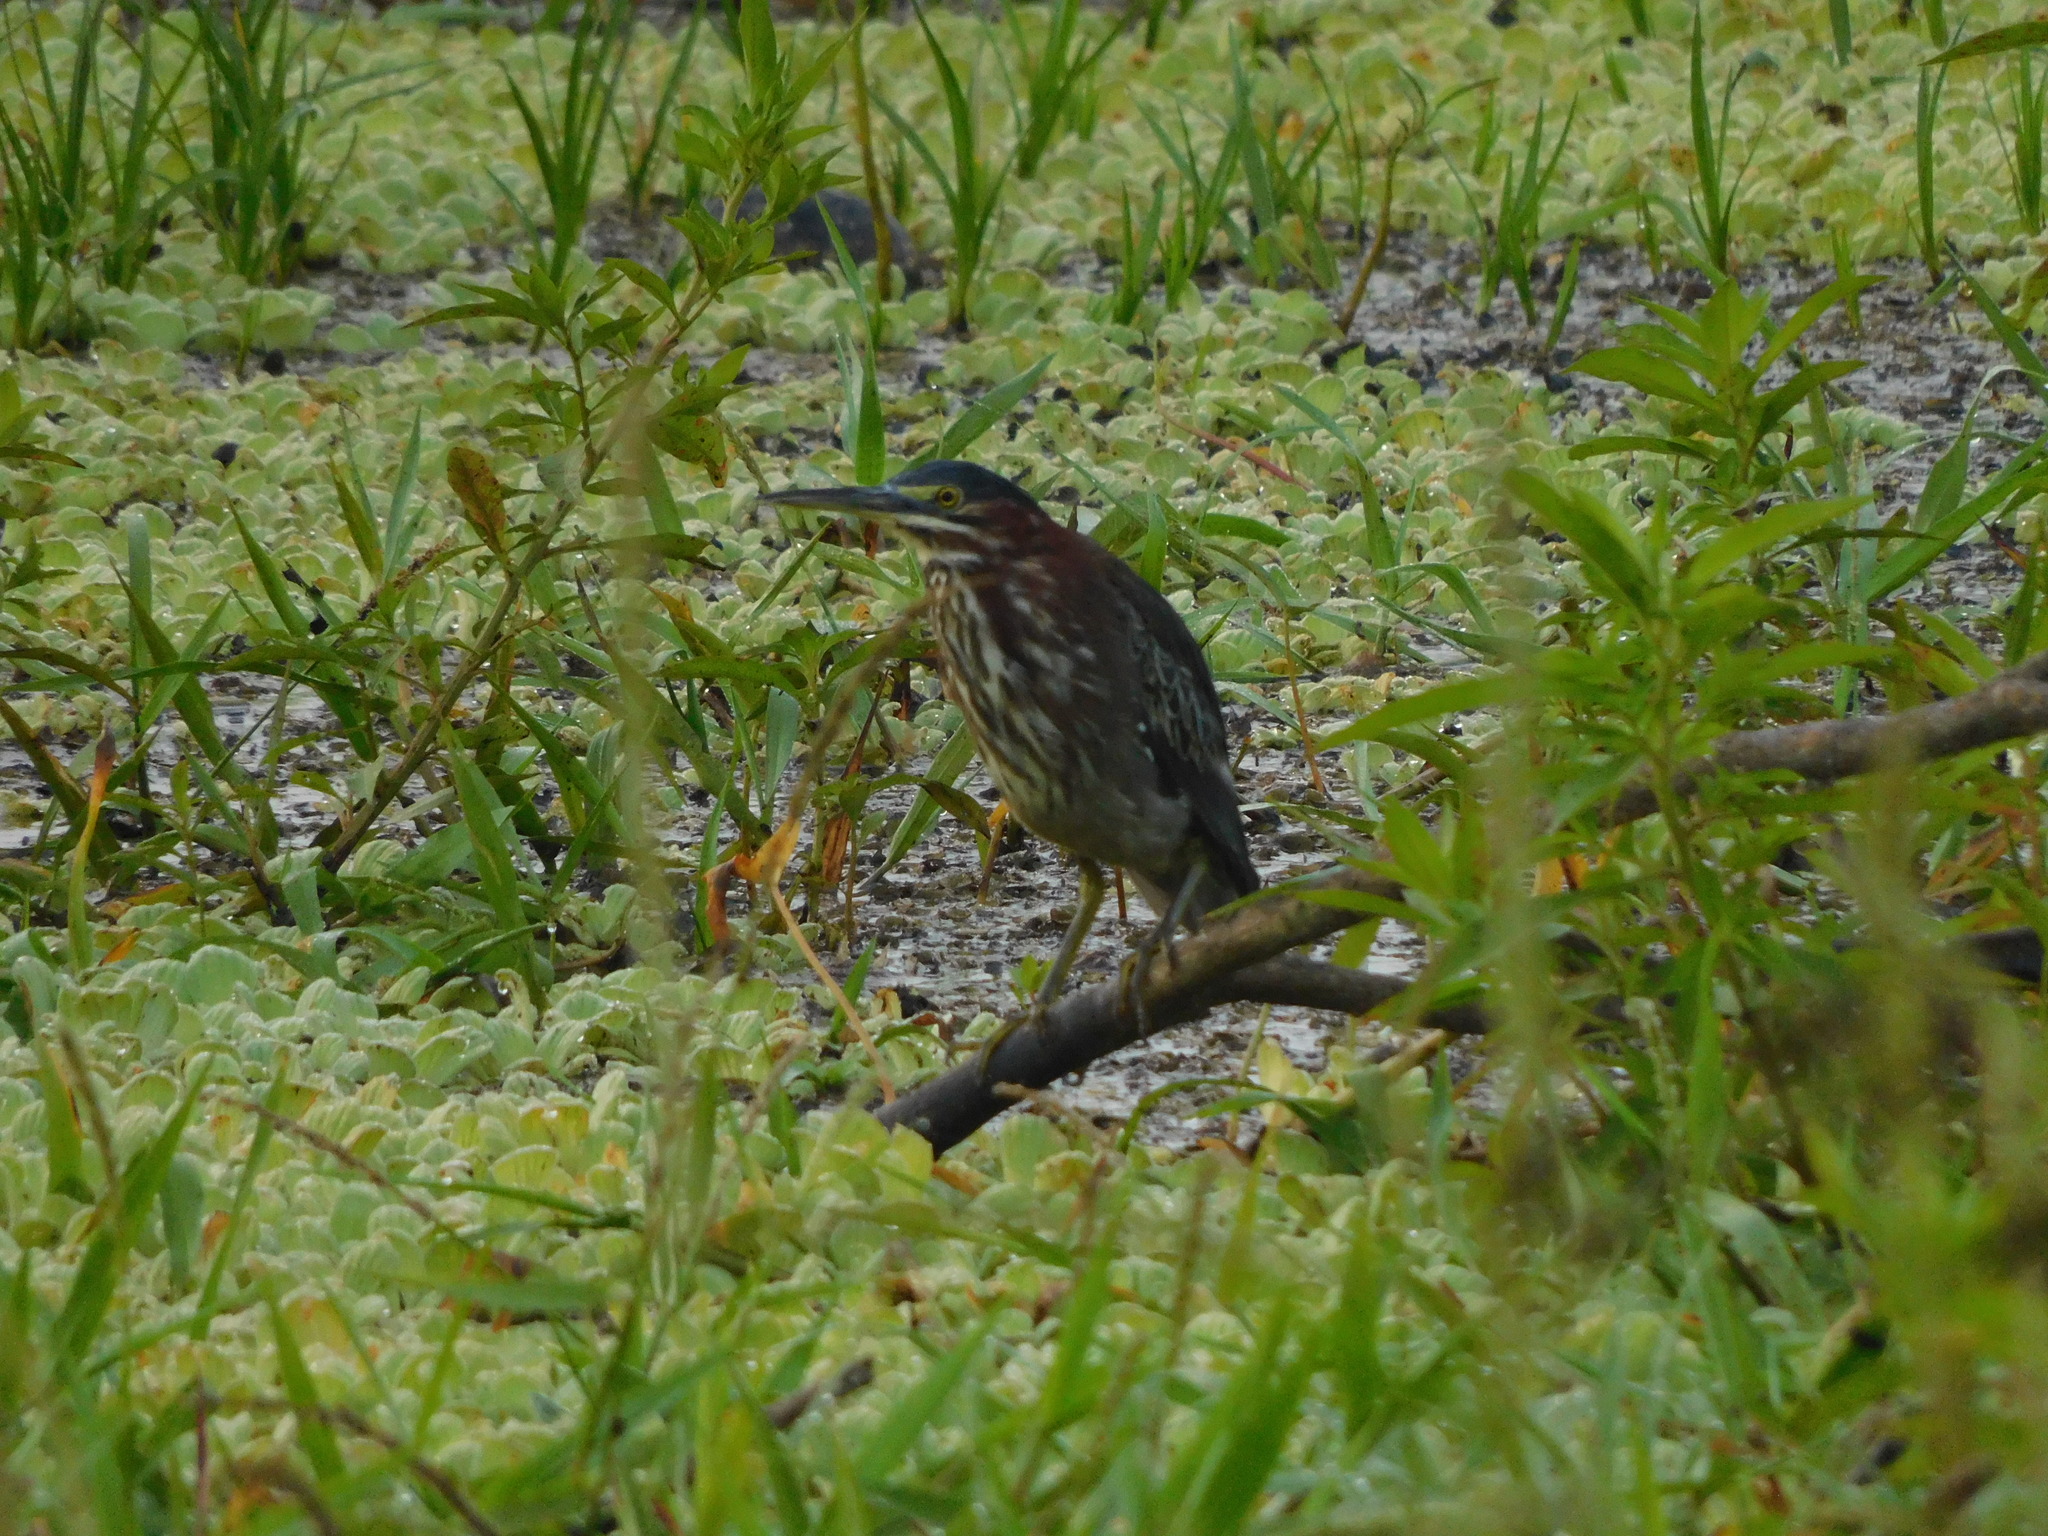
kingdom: Animalia
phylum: Chordata
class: Aves
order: Pelecaniformes
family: Ardeidae
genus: Butorides
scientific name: Butorides striata
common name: Striated heron
